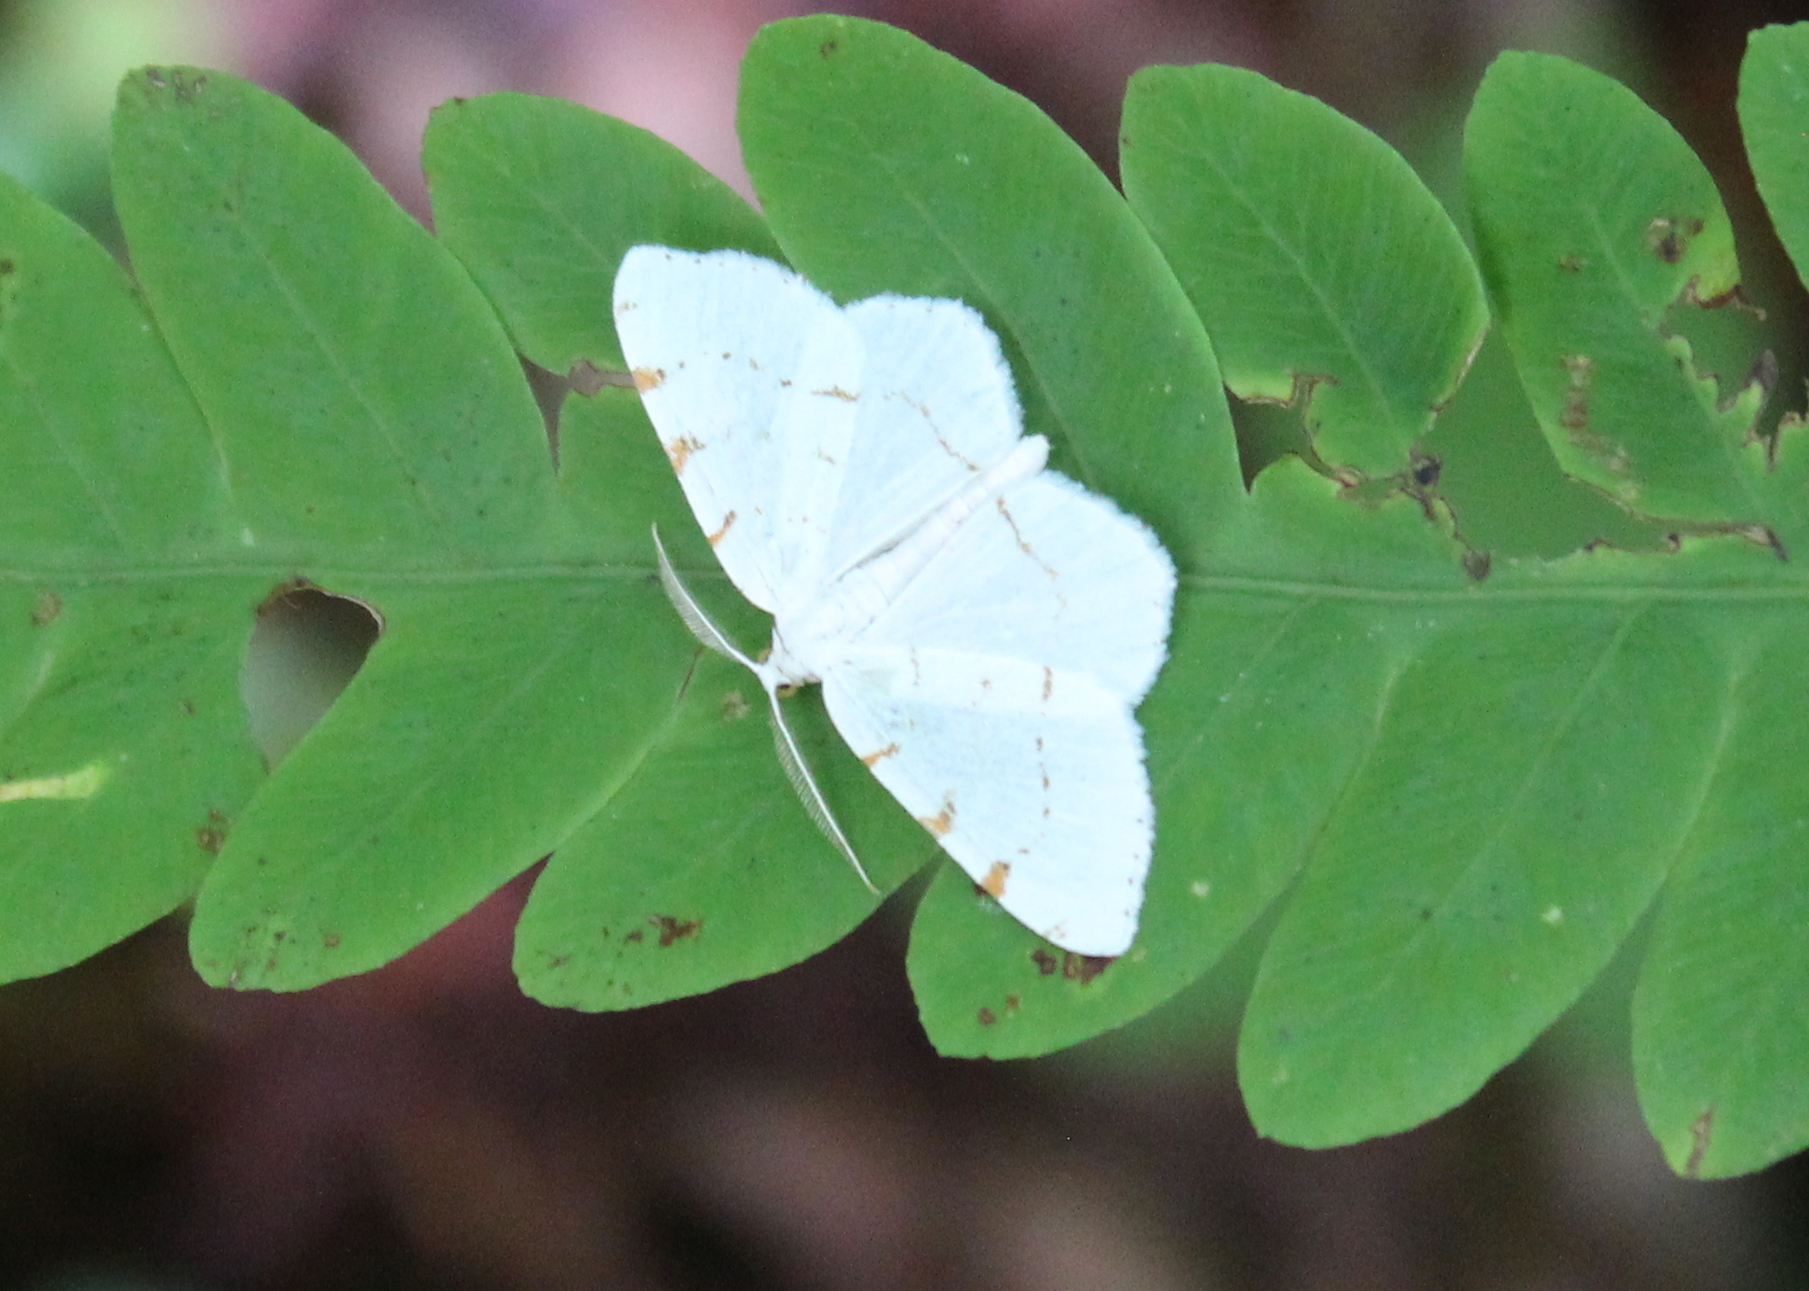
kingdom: Animalia
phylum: Arthropoda
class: Insecta
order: Lepidoptera
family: Geometridae
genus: Macaria
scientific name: Macaria pustularia
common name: Lesser maple spanworm moth
